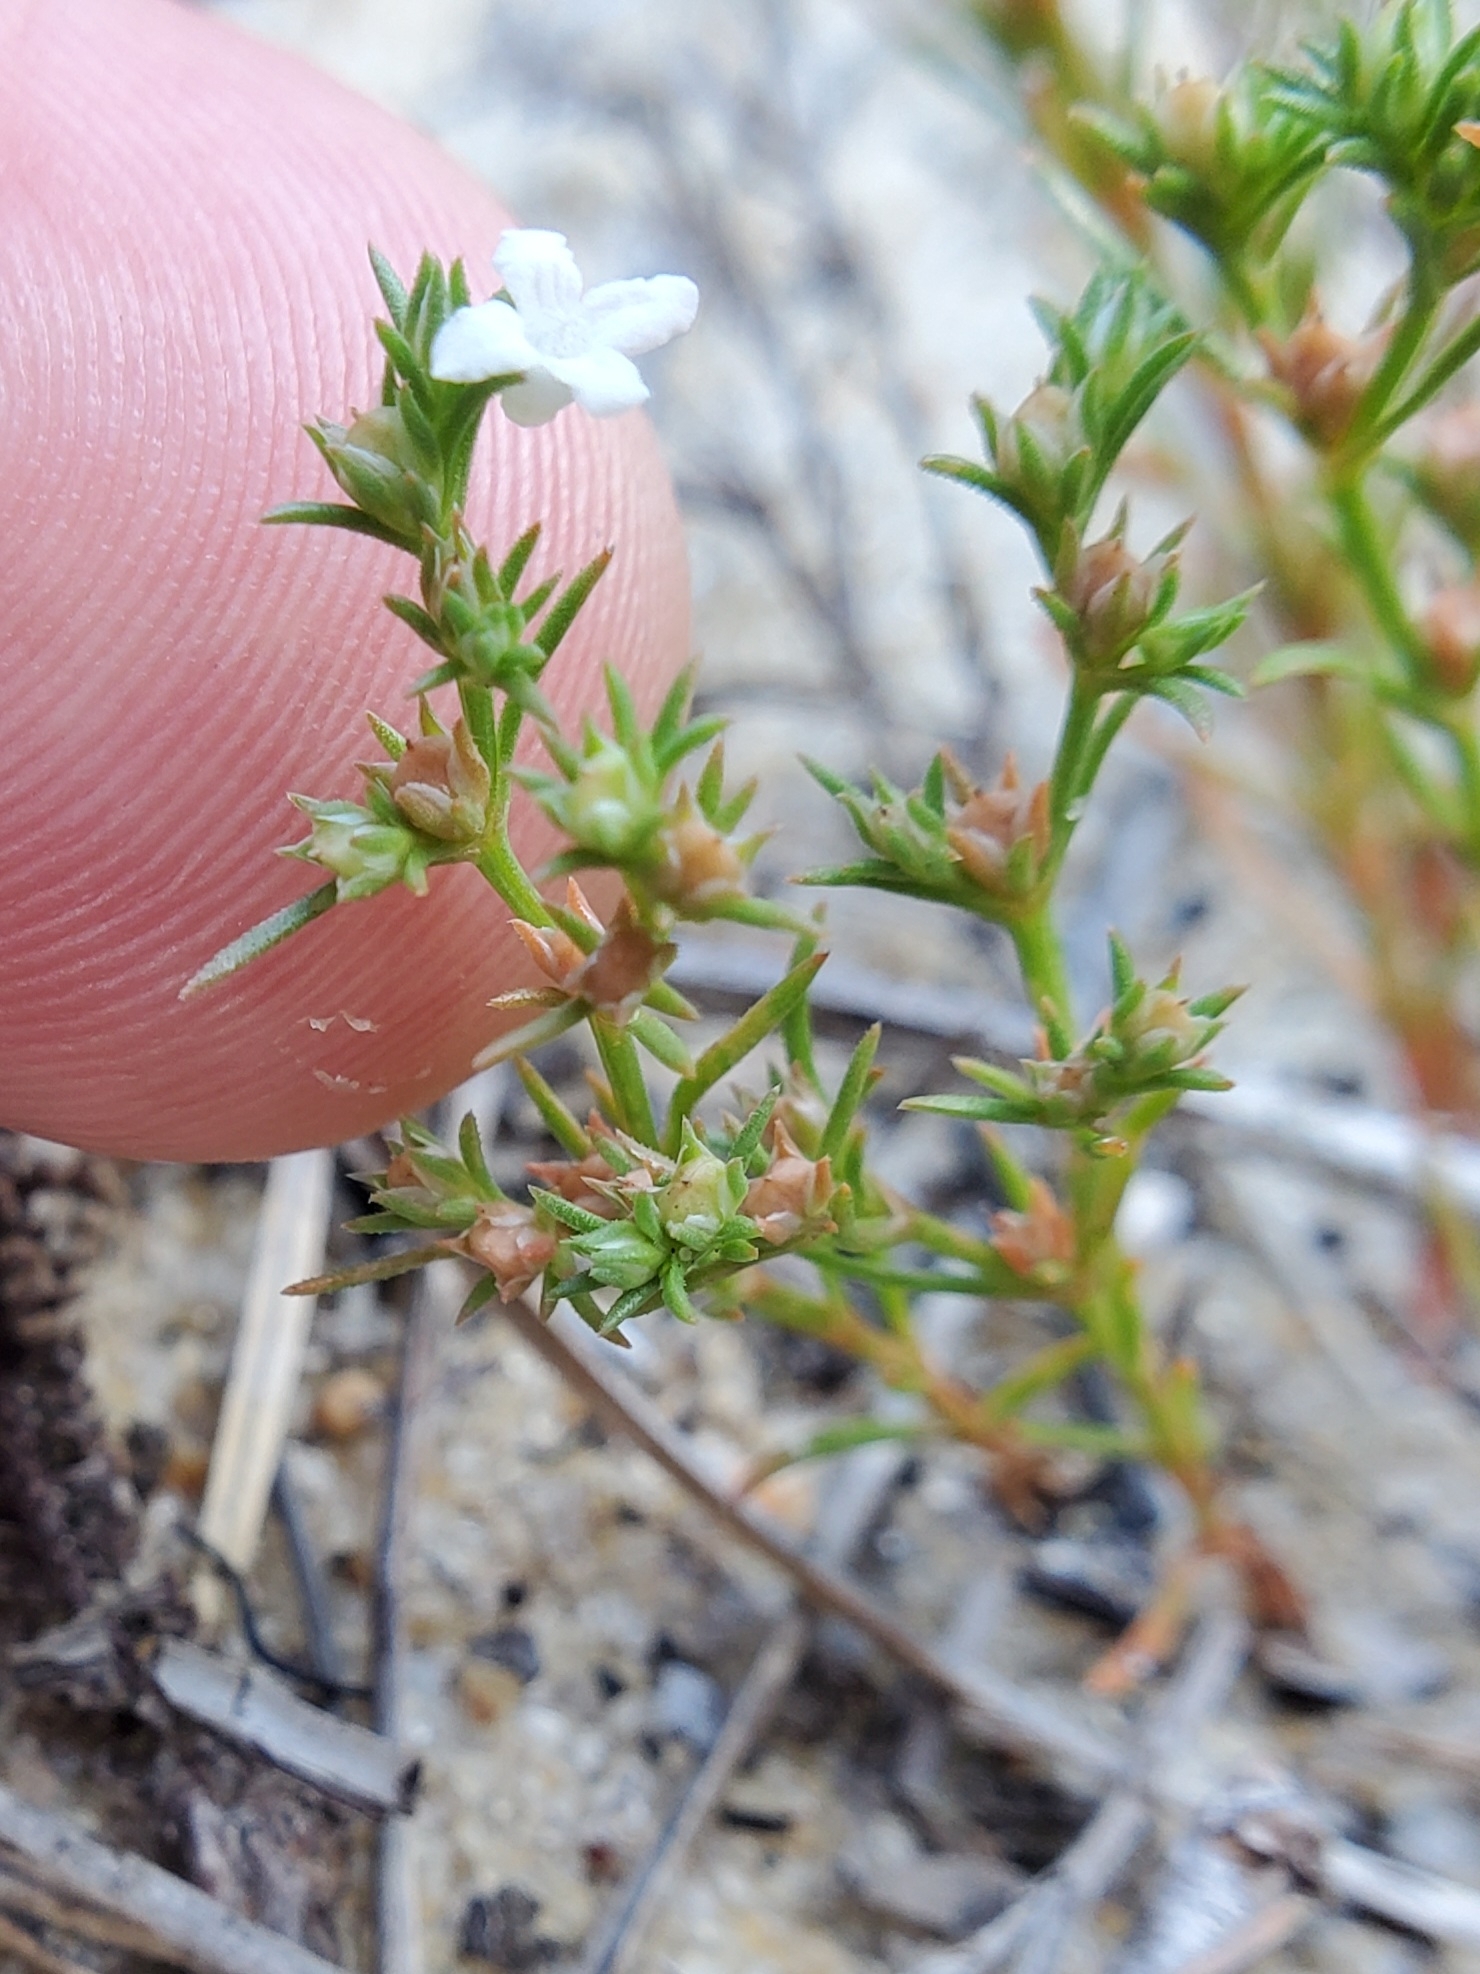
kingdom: Plantae
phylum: Tracheophyta
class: Magnoliopsida
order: Lamiales
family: Tetrachondraceae
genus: Polypremum
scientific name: Polypremum procumbens
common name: Juniper-leaf
